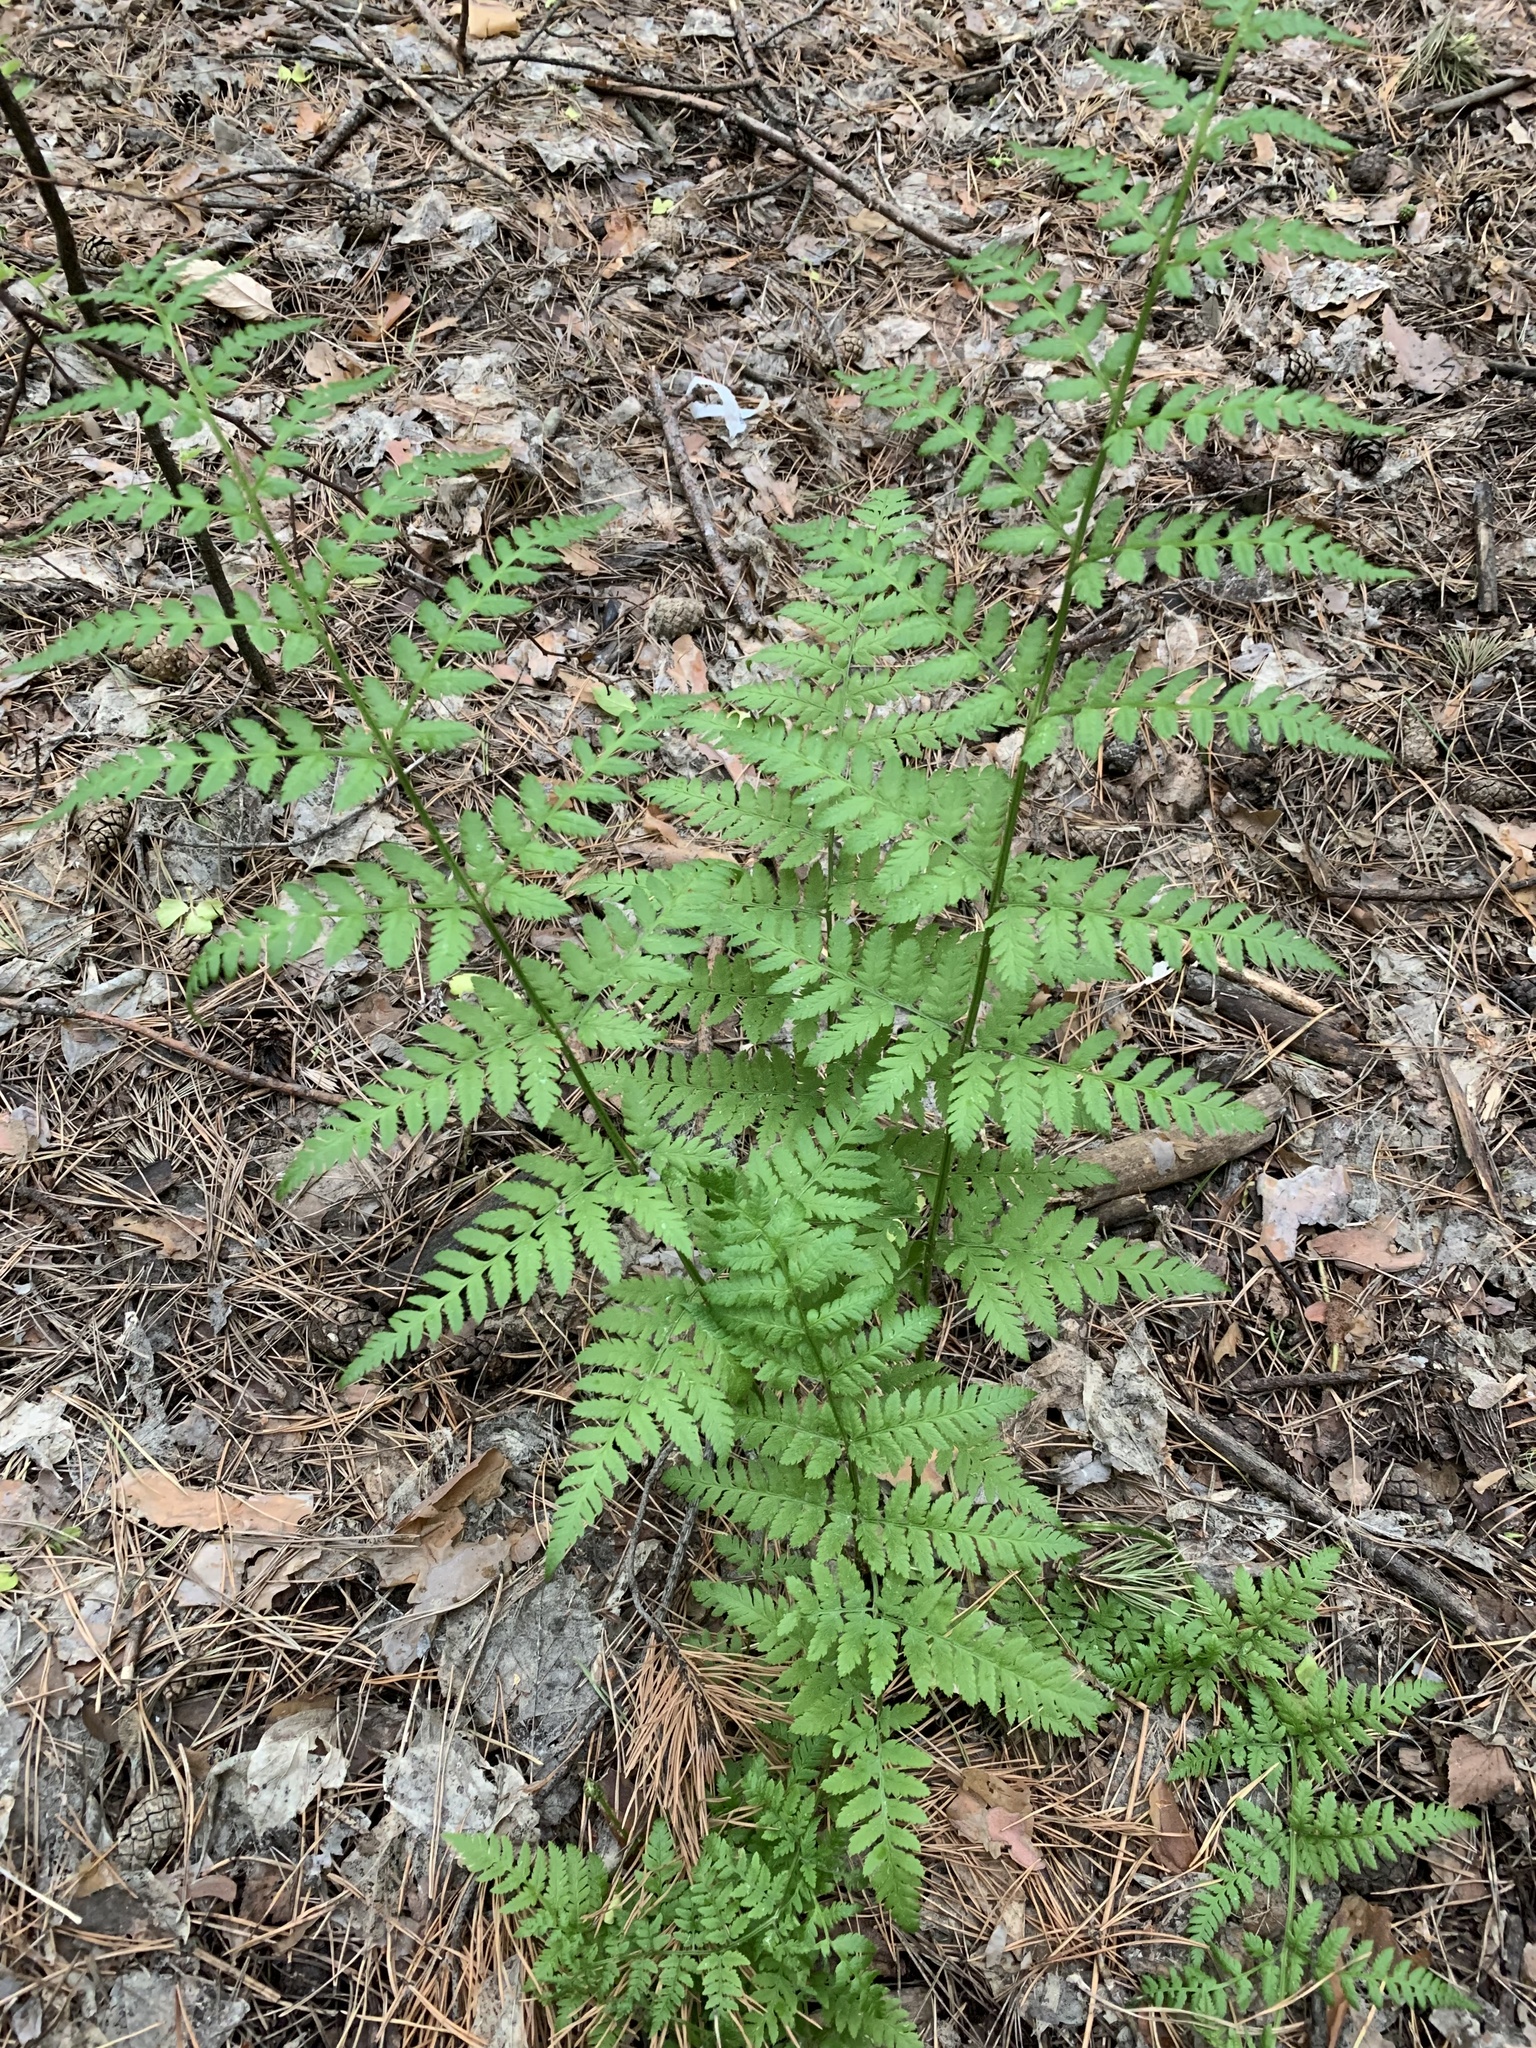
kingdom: Plantae
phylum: Tracheophyta
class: Polypodiopsida
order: Polypodiales
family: Dryopteridaceae
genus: Dryopteris
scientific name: Dryopteris carthusiana
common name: Narrow buckler-fern
